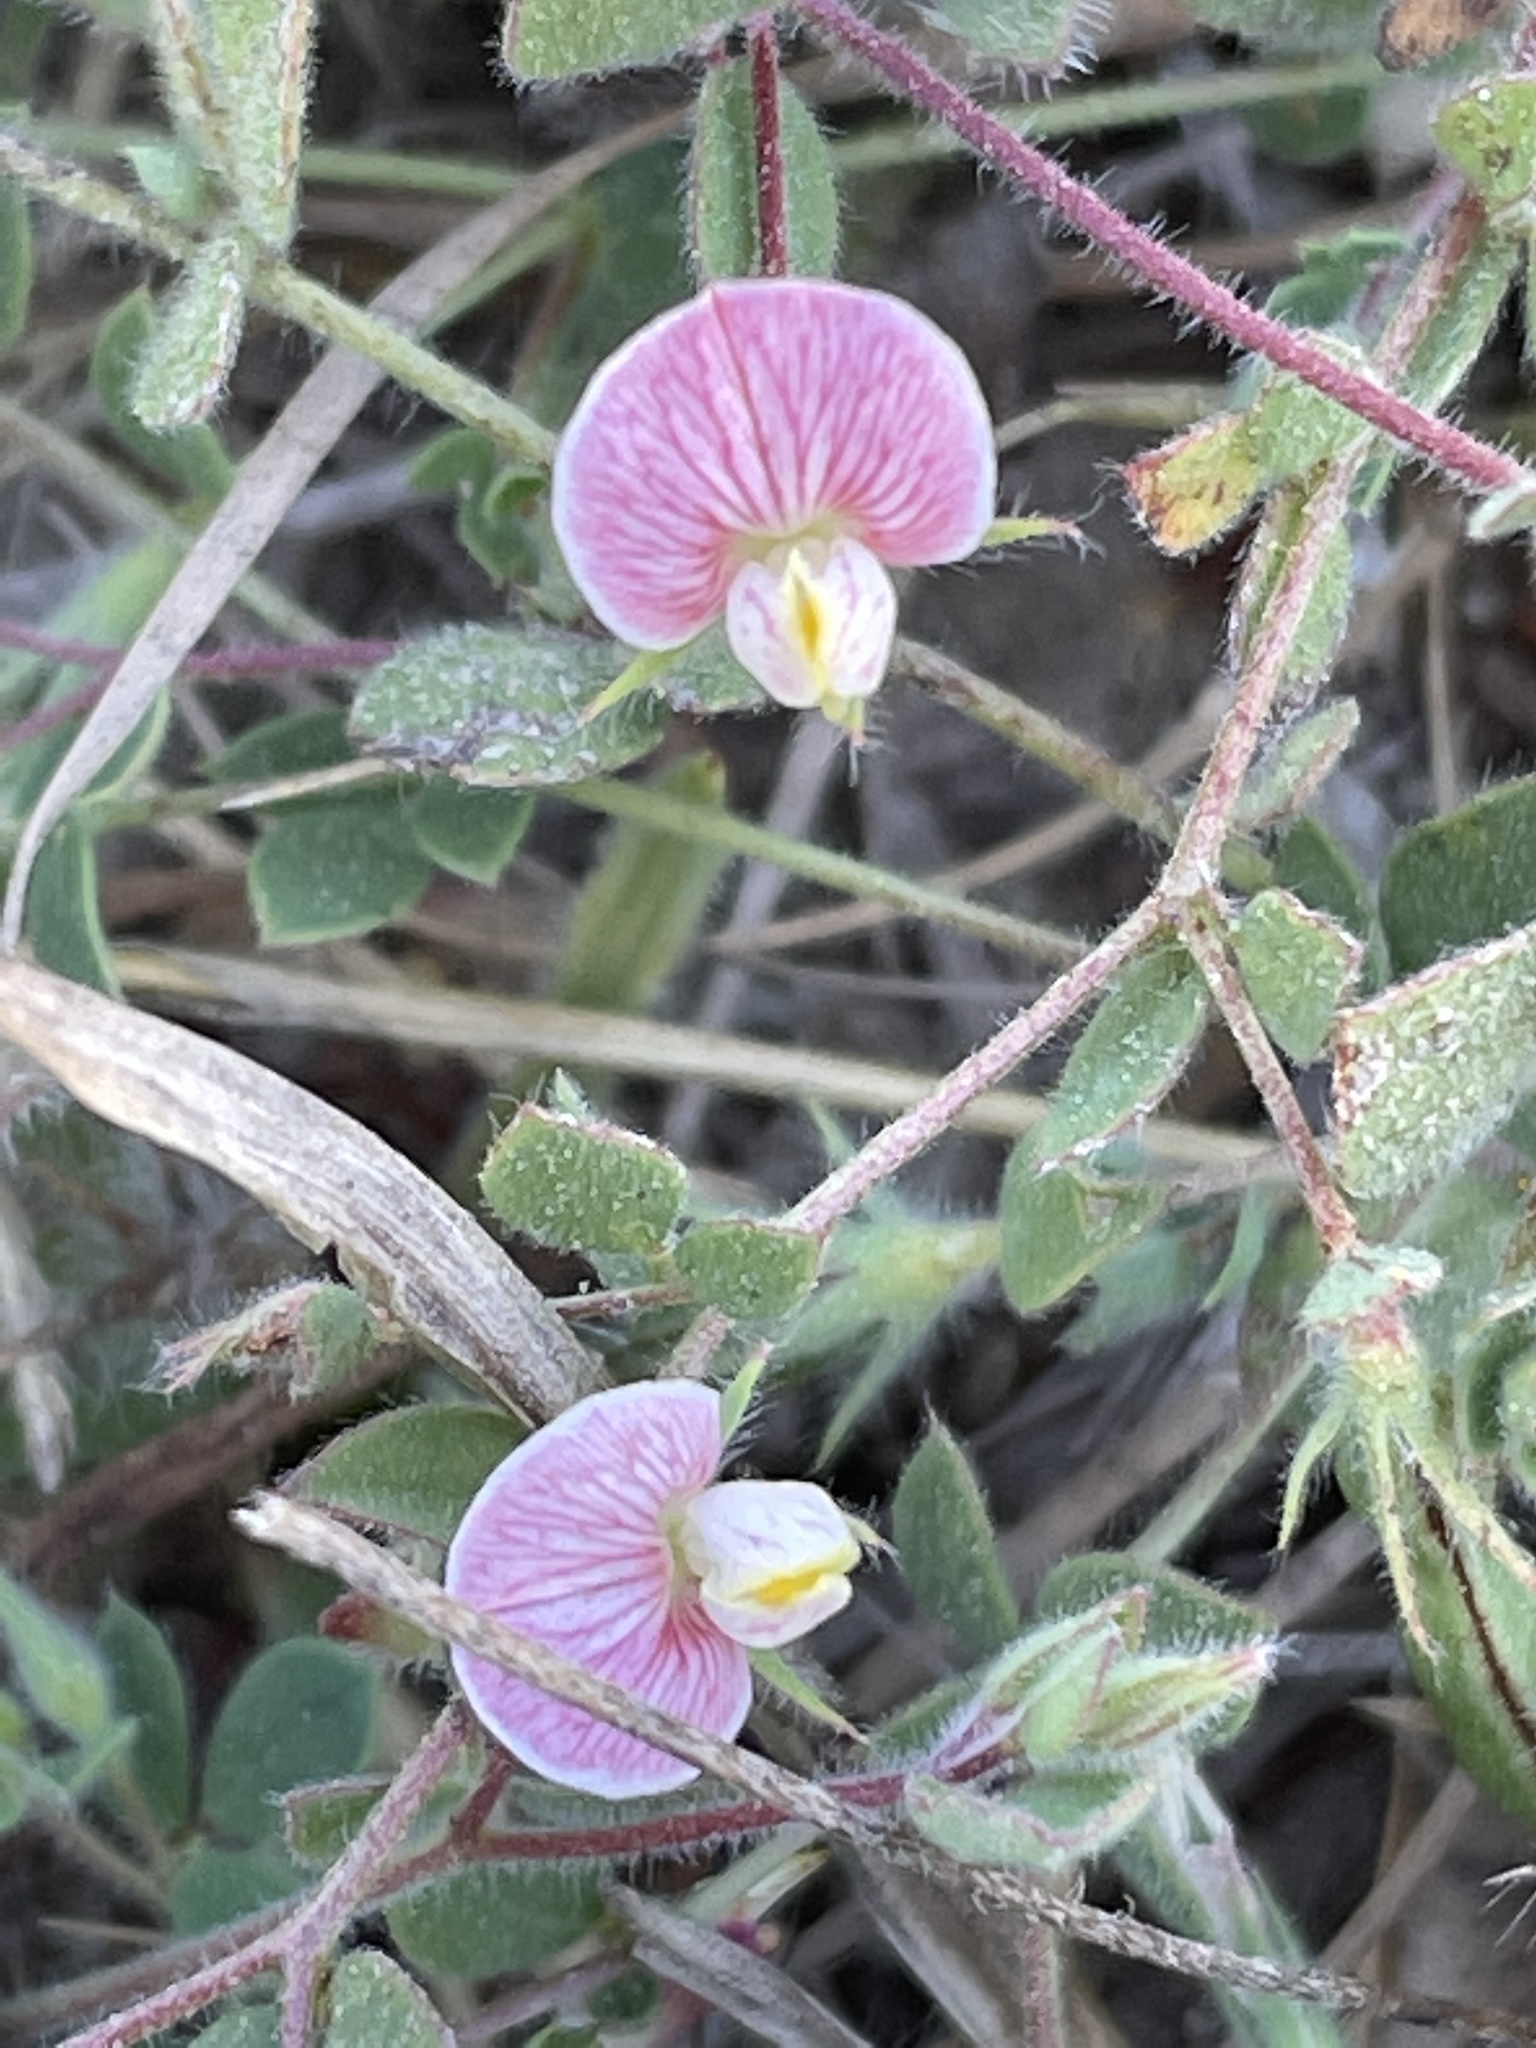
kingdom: Plantae
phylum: Tracheophyta
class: Magnoliopsida
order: Fabales
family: Fabaceae
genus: Acmispon
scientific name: Acmispon americanus
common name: American bird's-foot trefoil
